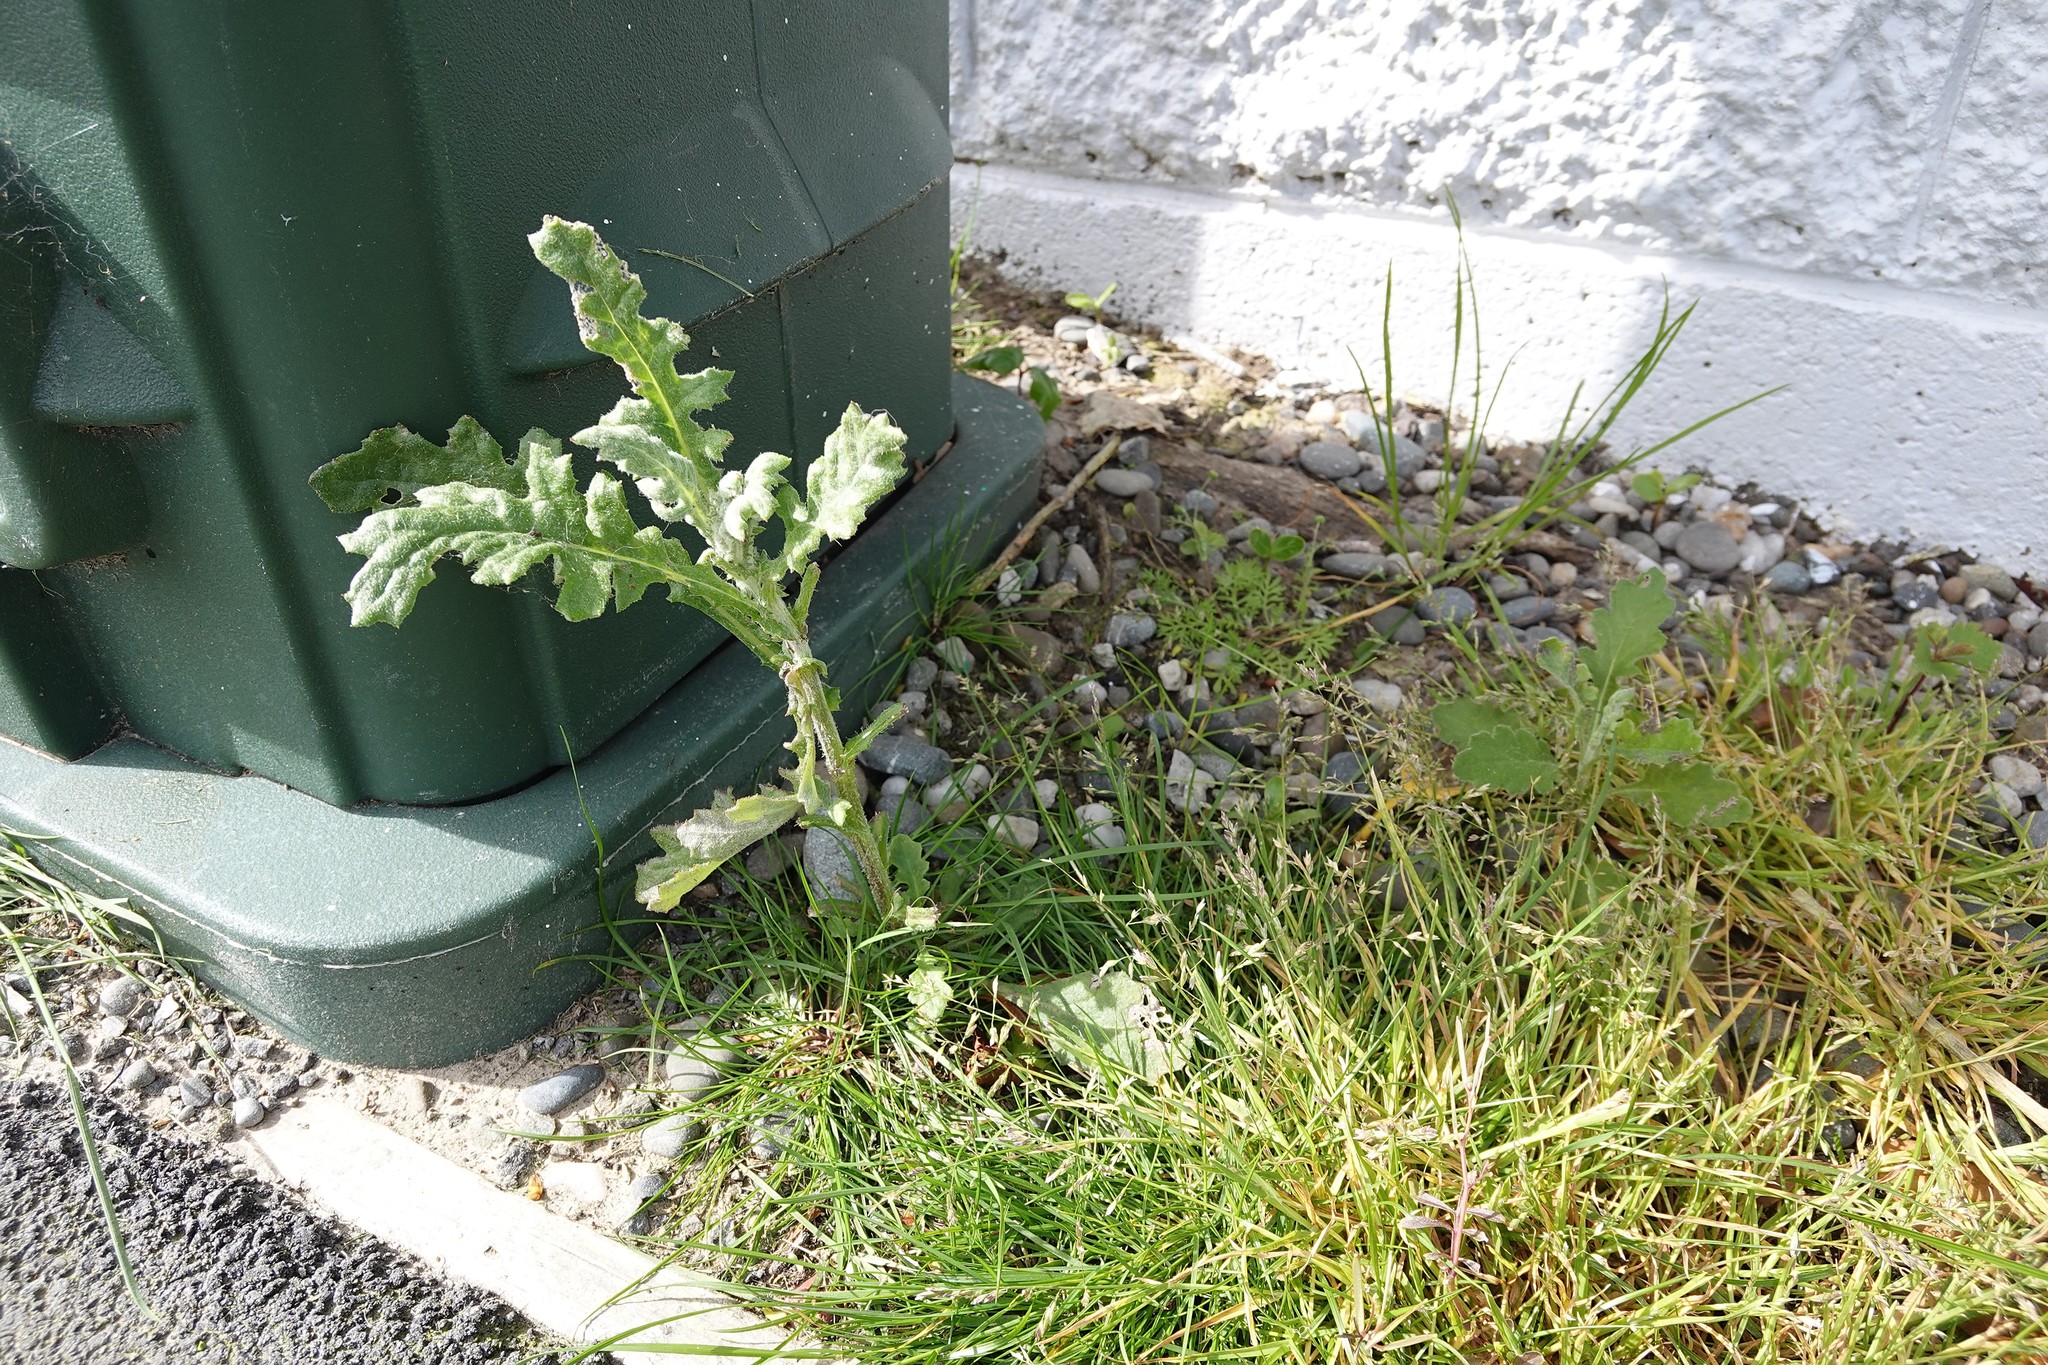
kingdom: Plantae
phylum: Tracheophyta
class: Magnoliopsida
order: Asterales
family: Asteraceae
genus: Senecio
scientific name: Senecio glomeratus
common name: Cutleaf burnweed
